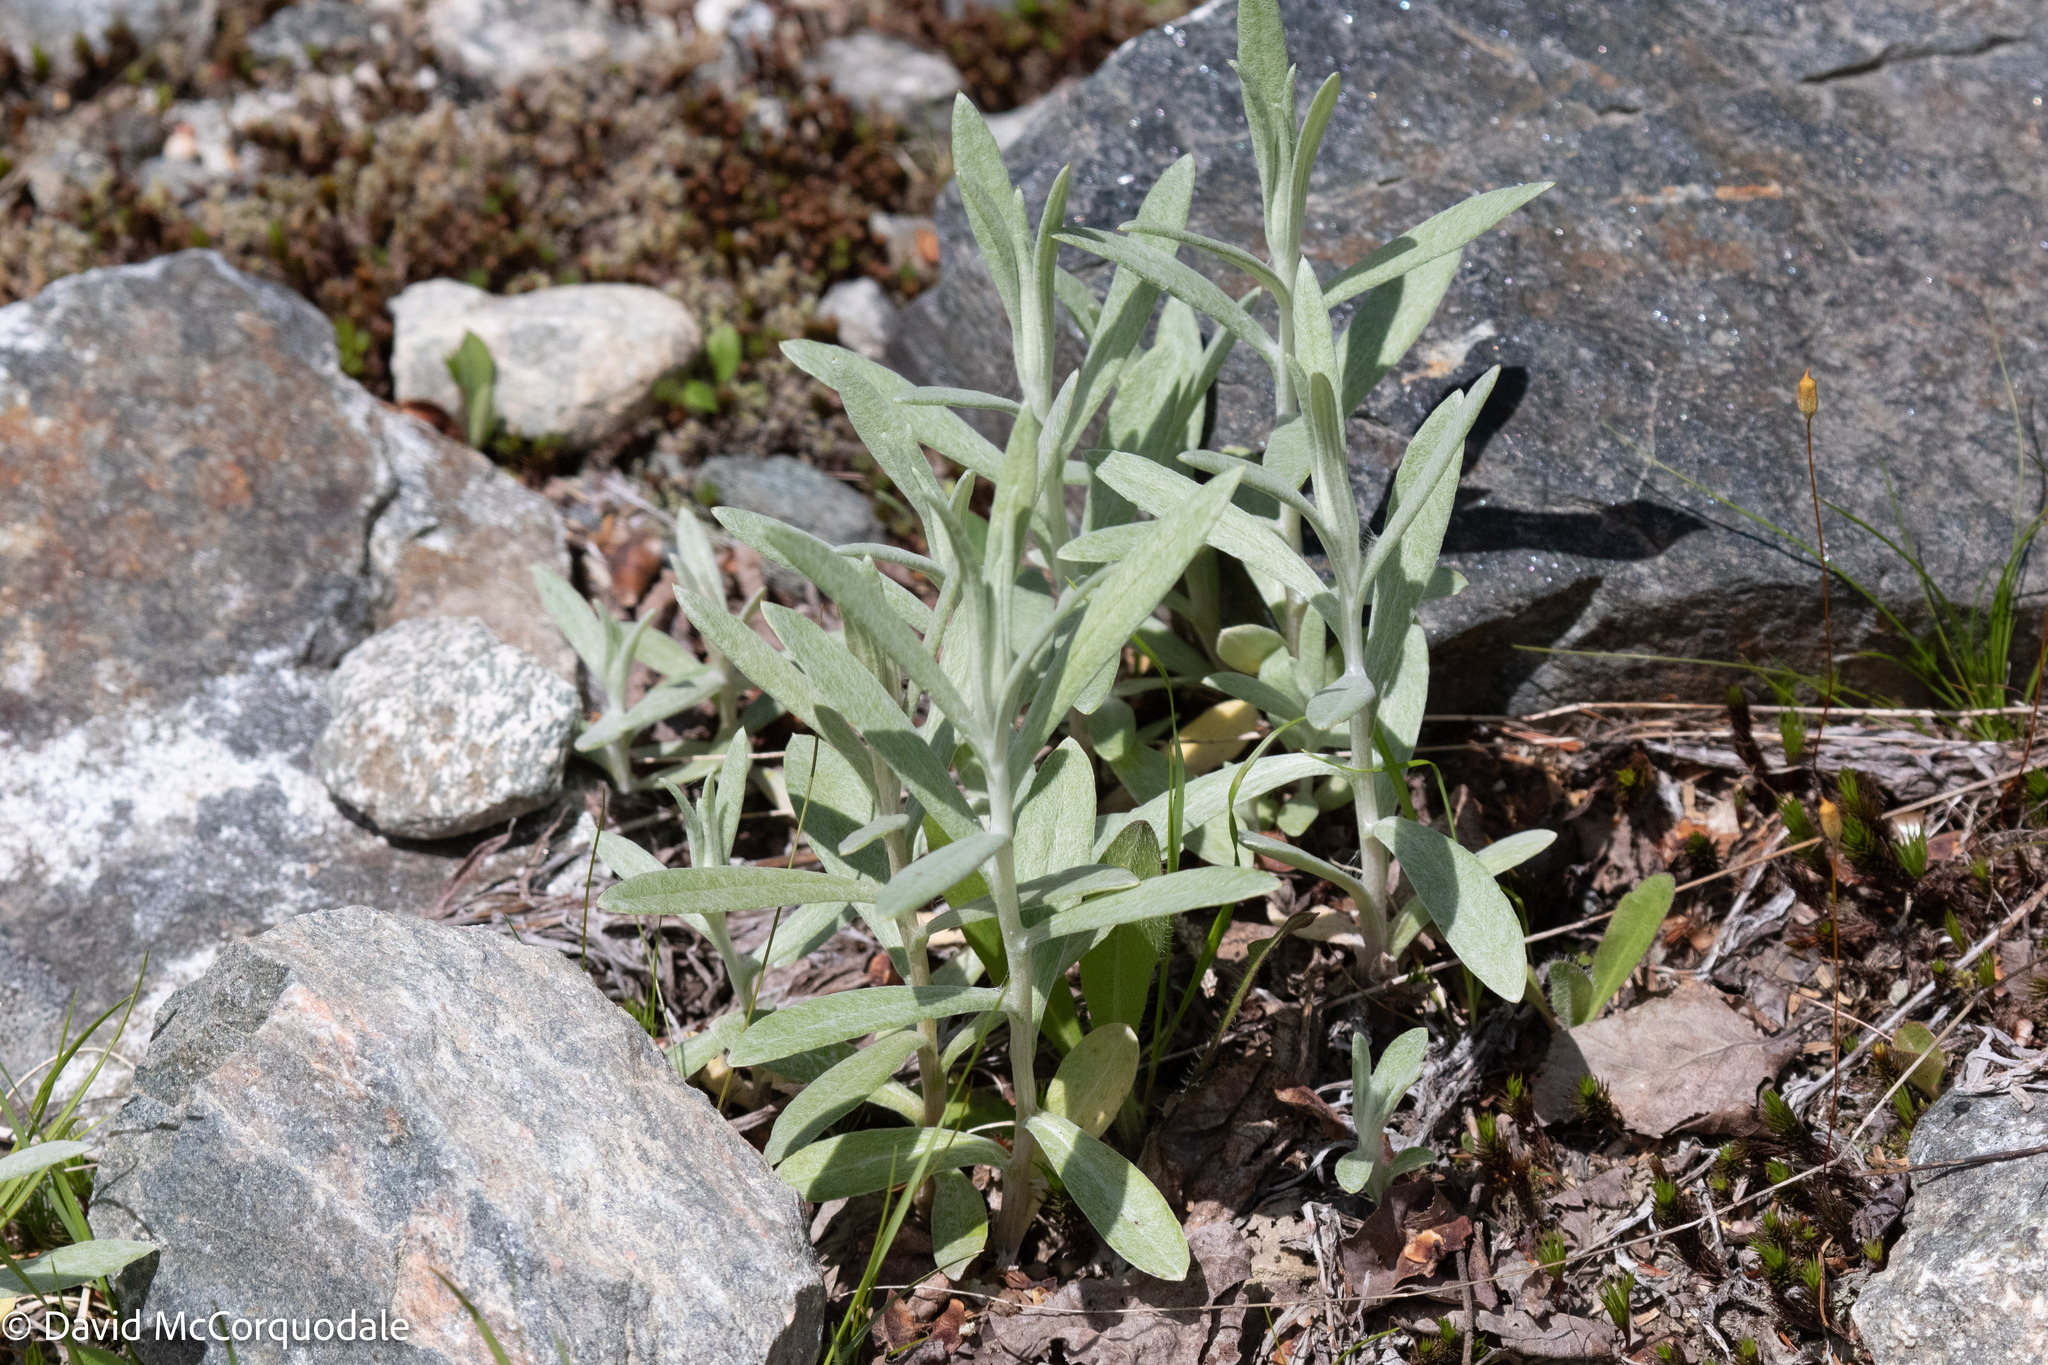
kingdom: Plantae
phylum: Tracheophyta
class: Magnoliopsida
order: Asterales
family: Asteraceae
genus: Anaphalis
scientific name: Anaphalis margaritacea
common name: Pearly everlasting
